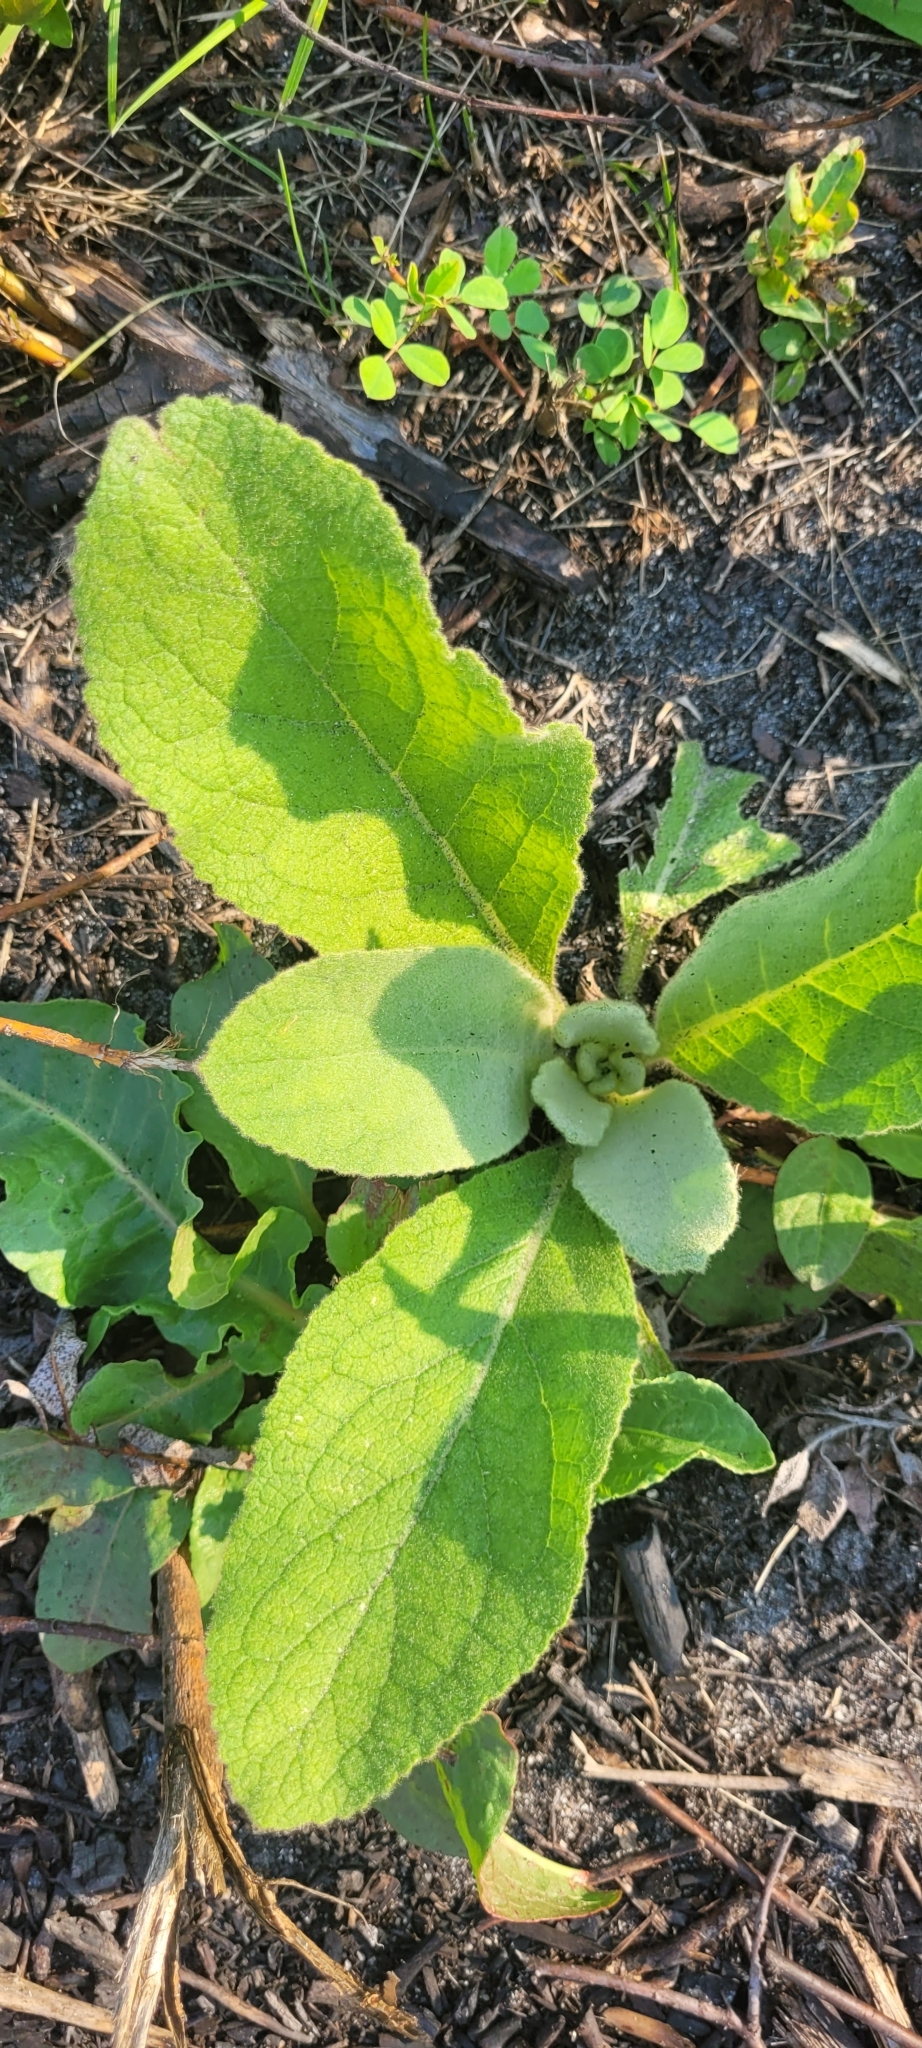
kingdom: Plantae
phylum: Tracheophyta
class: Magnoliopsida
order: Lamiales
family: Scrophulariaceae
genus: Verbascum
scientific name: Verbascum thapsus
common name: Common mullein
